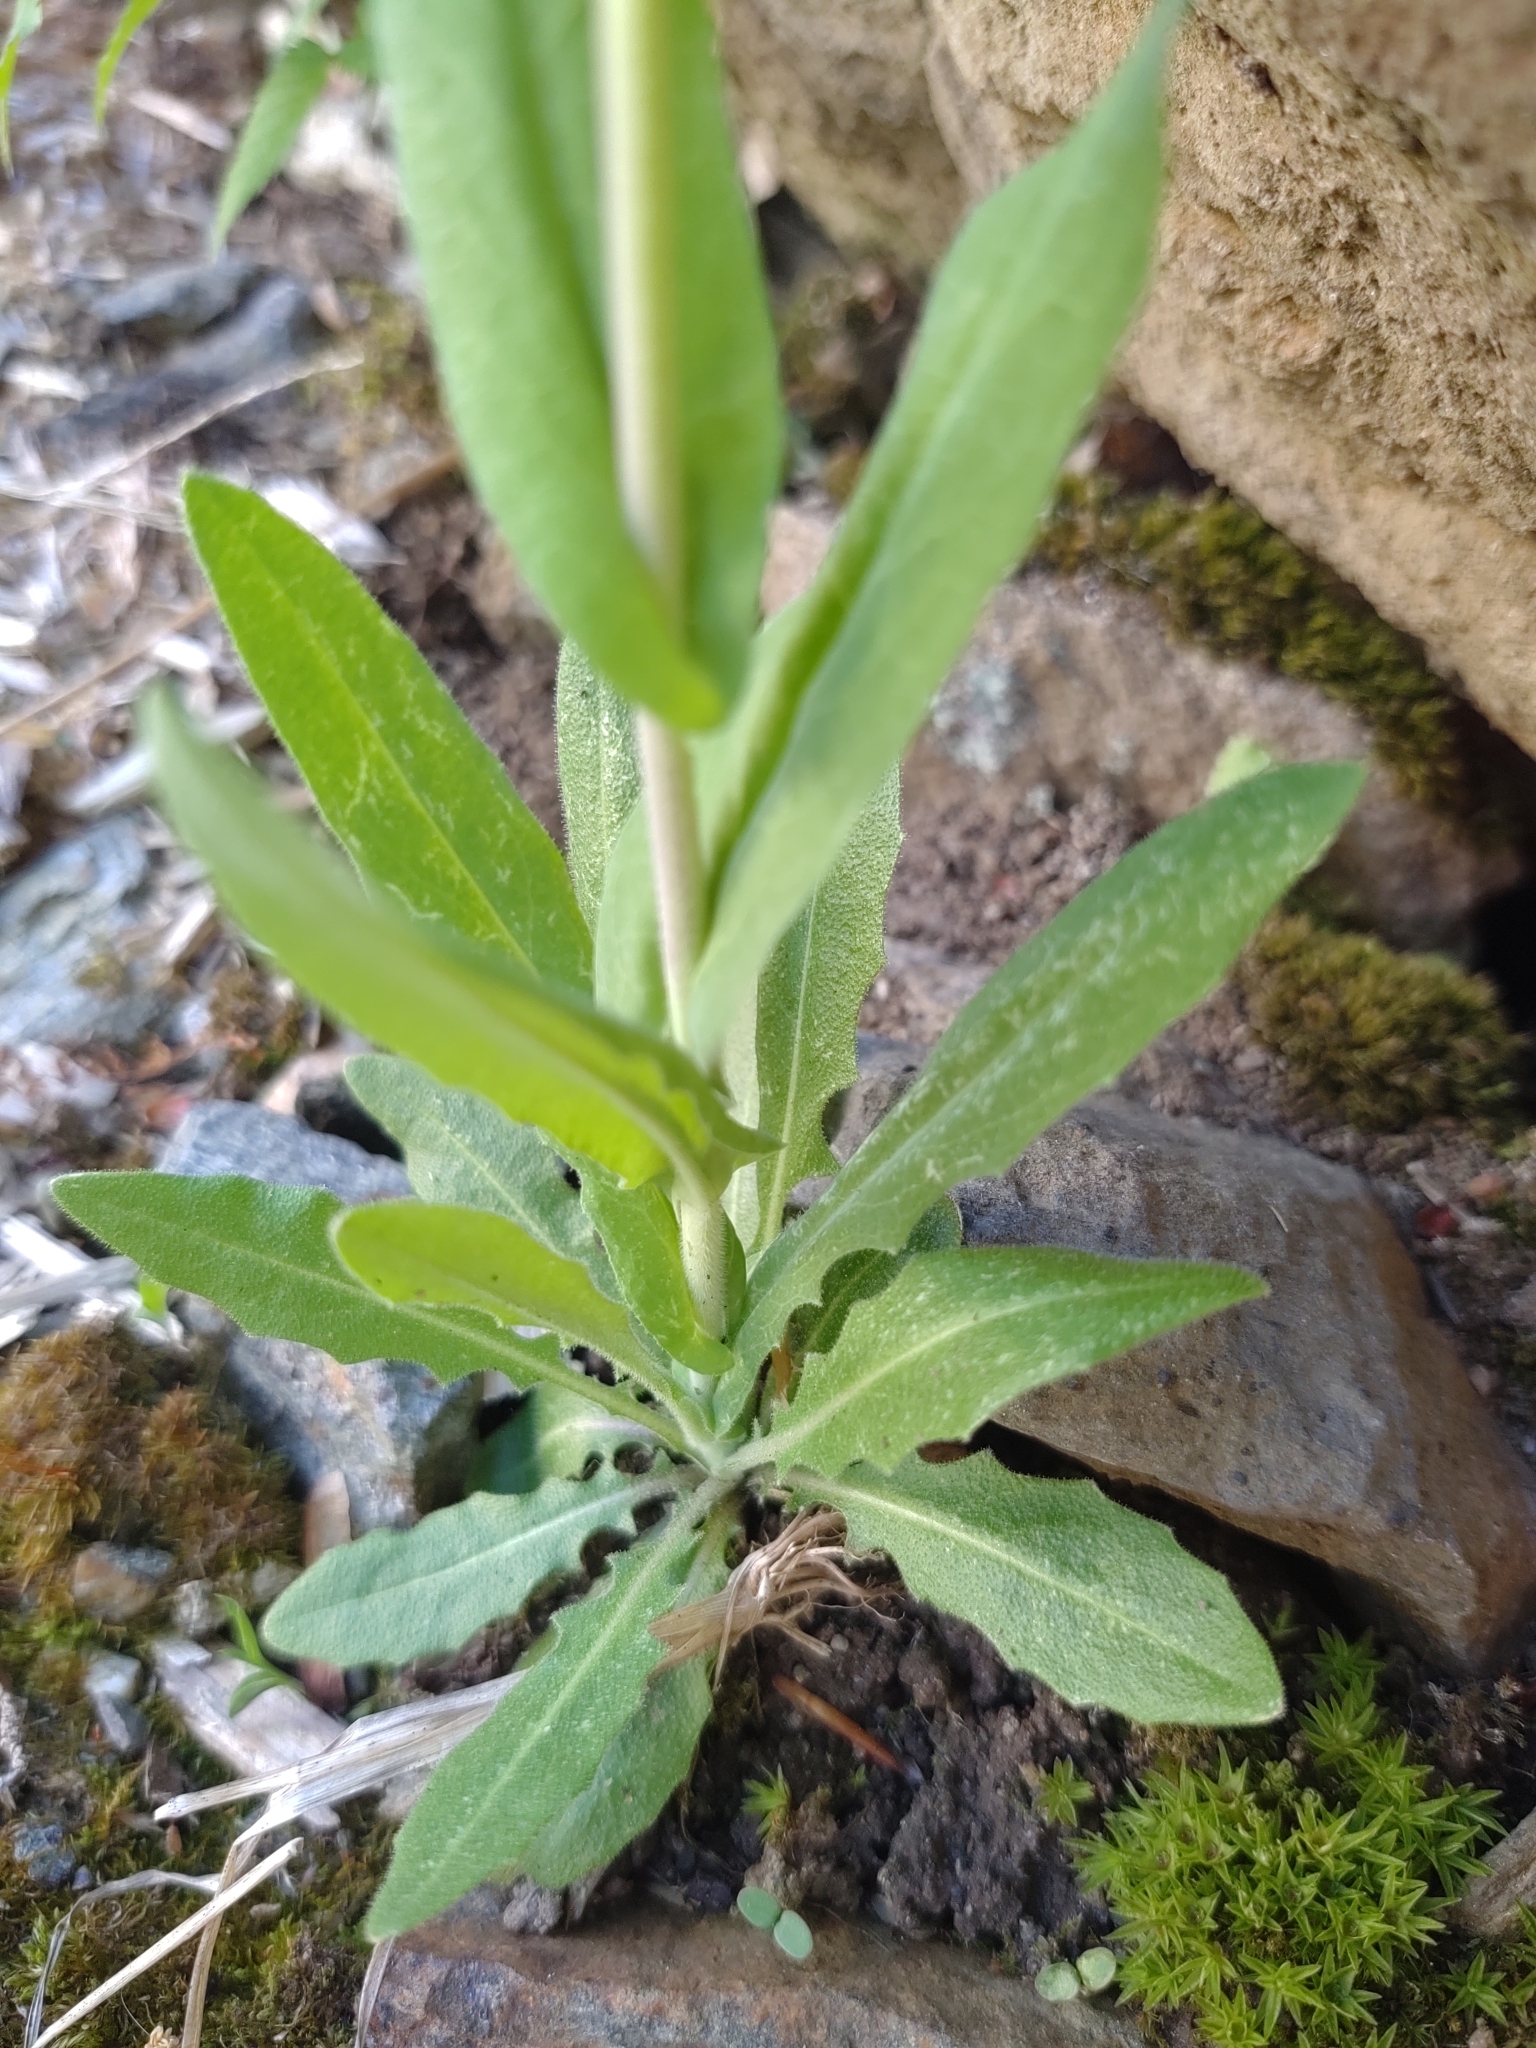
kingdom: Plantae
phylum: Tracheophyta
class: Magnoliopsida
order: Brassicales
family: Brassicaceae
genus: Turritis
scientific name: Turritis glabra
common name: Tower rockcress
